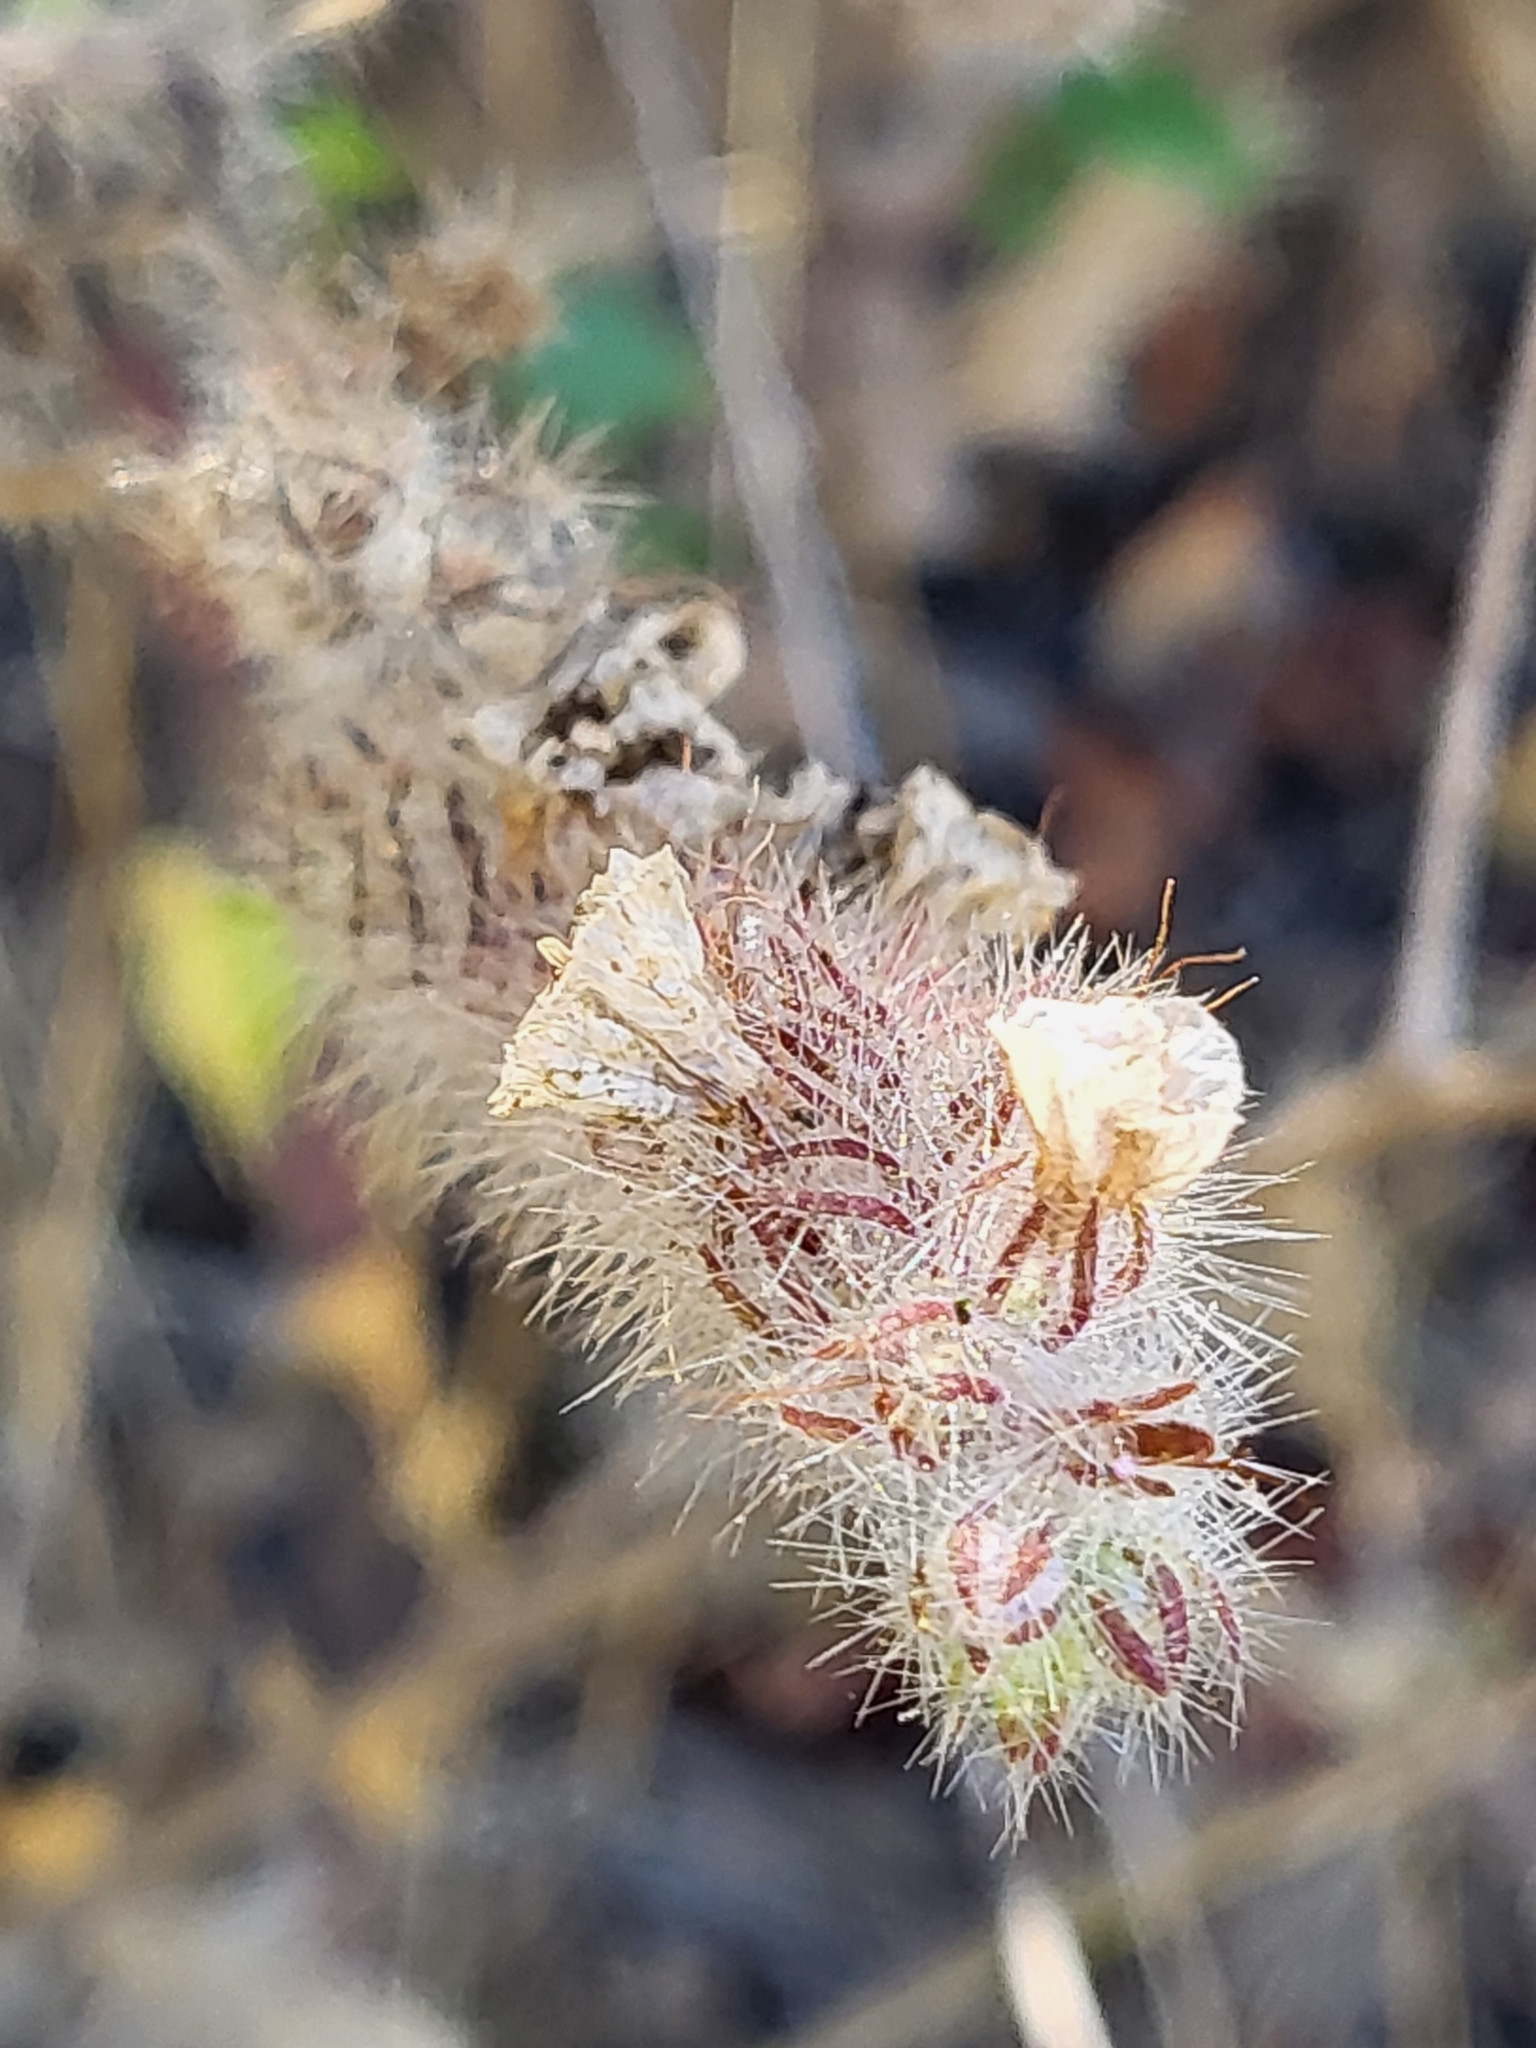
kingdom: Plantae
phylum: Tracheophyta
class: Magnoliopsida
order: Boraginales
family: Hydrophyllaceae
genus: Phacelia
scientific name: Phacelia cicutaria
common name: Caterpillar phacelia
